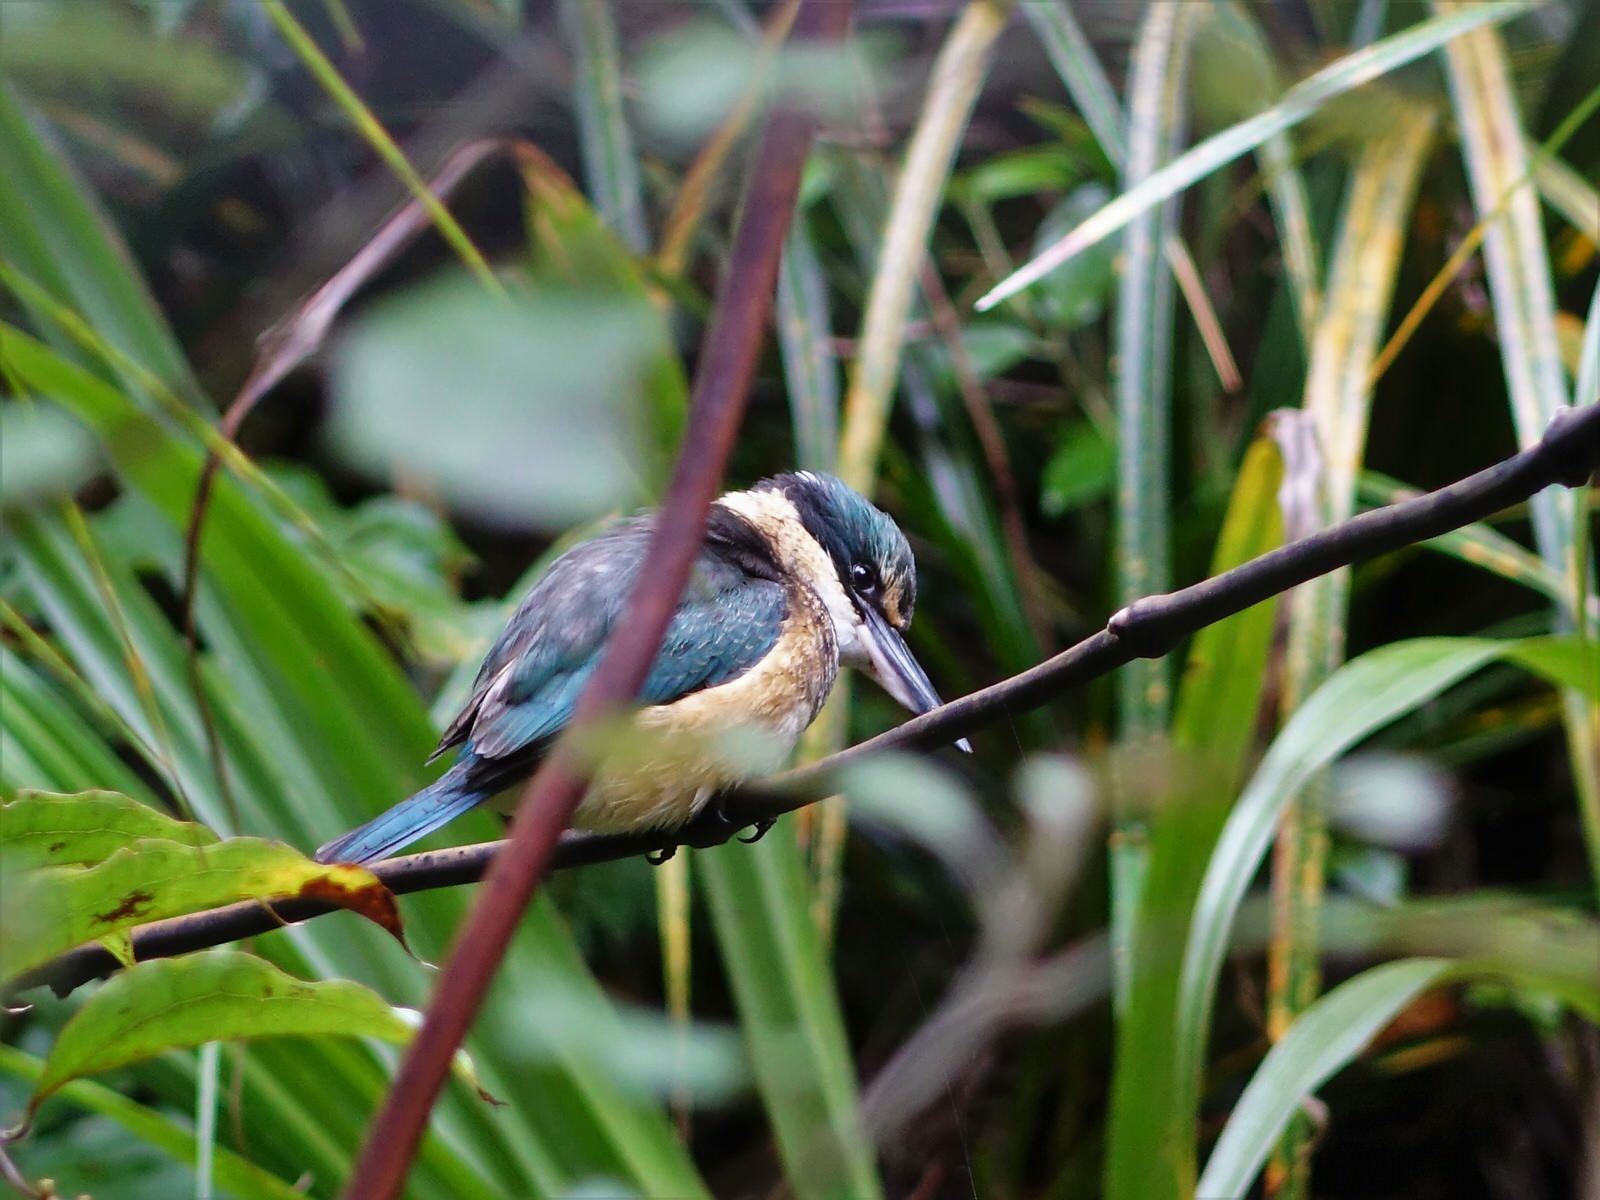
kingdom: Animalia
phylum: Chordata
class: Aves
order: Coraciiformes
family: Alcedinidae
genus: Todiramphus
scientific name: Todiramphus sanctus
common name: Sacred kingfisher
